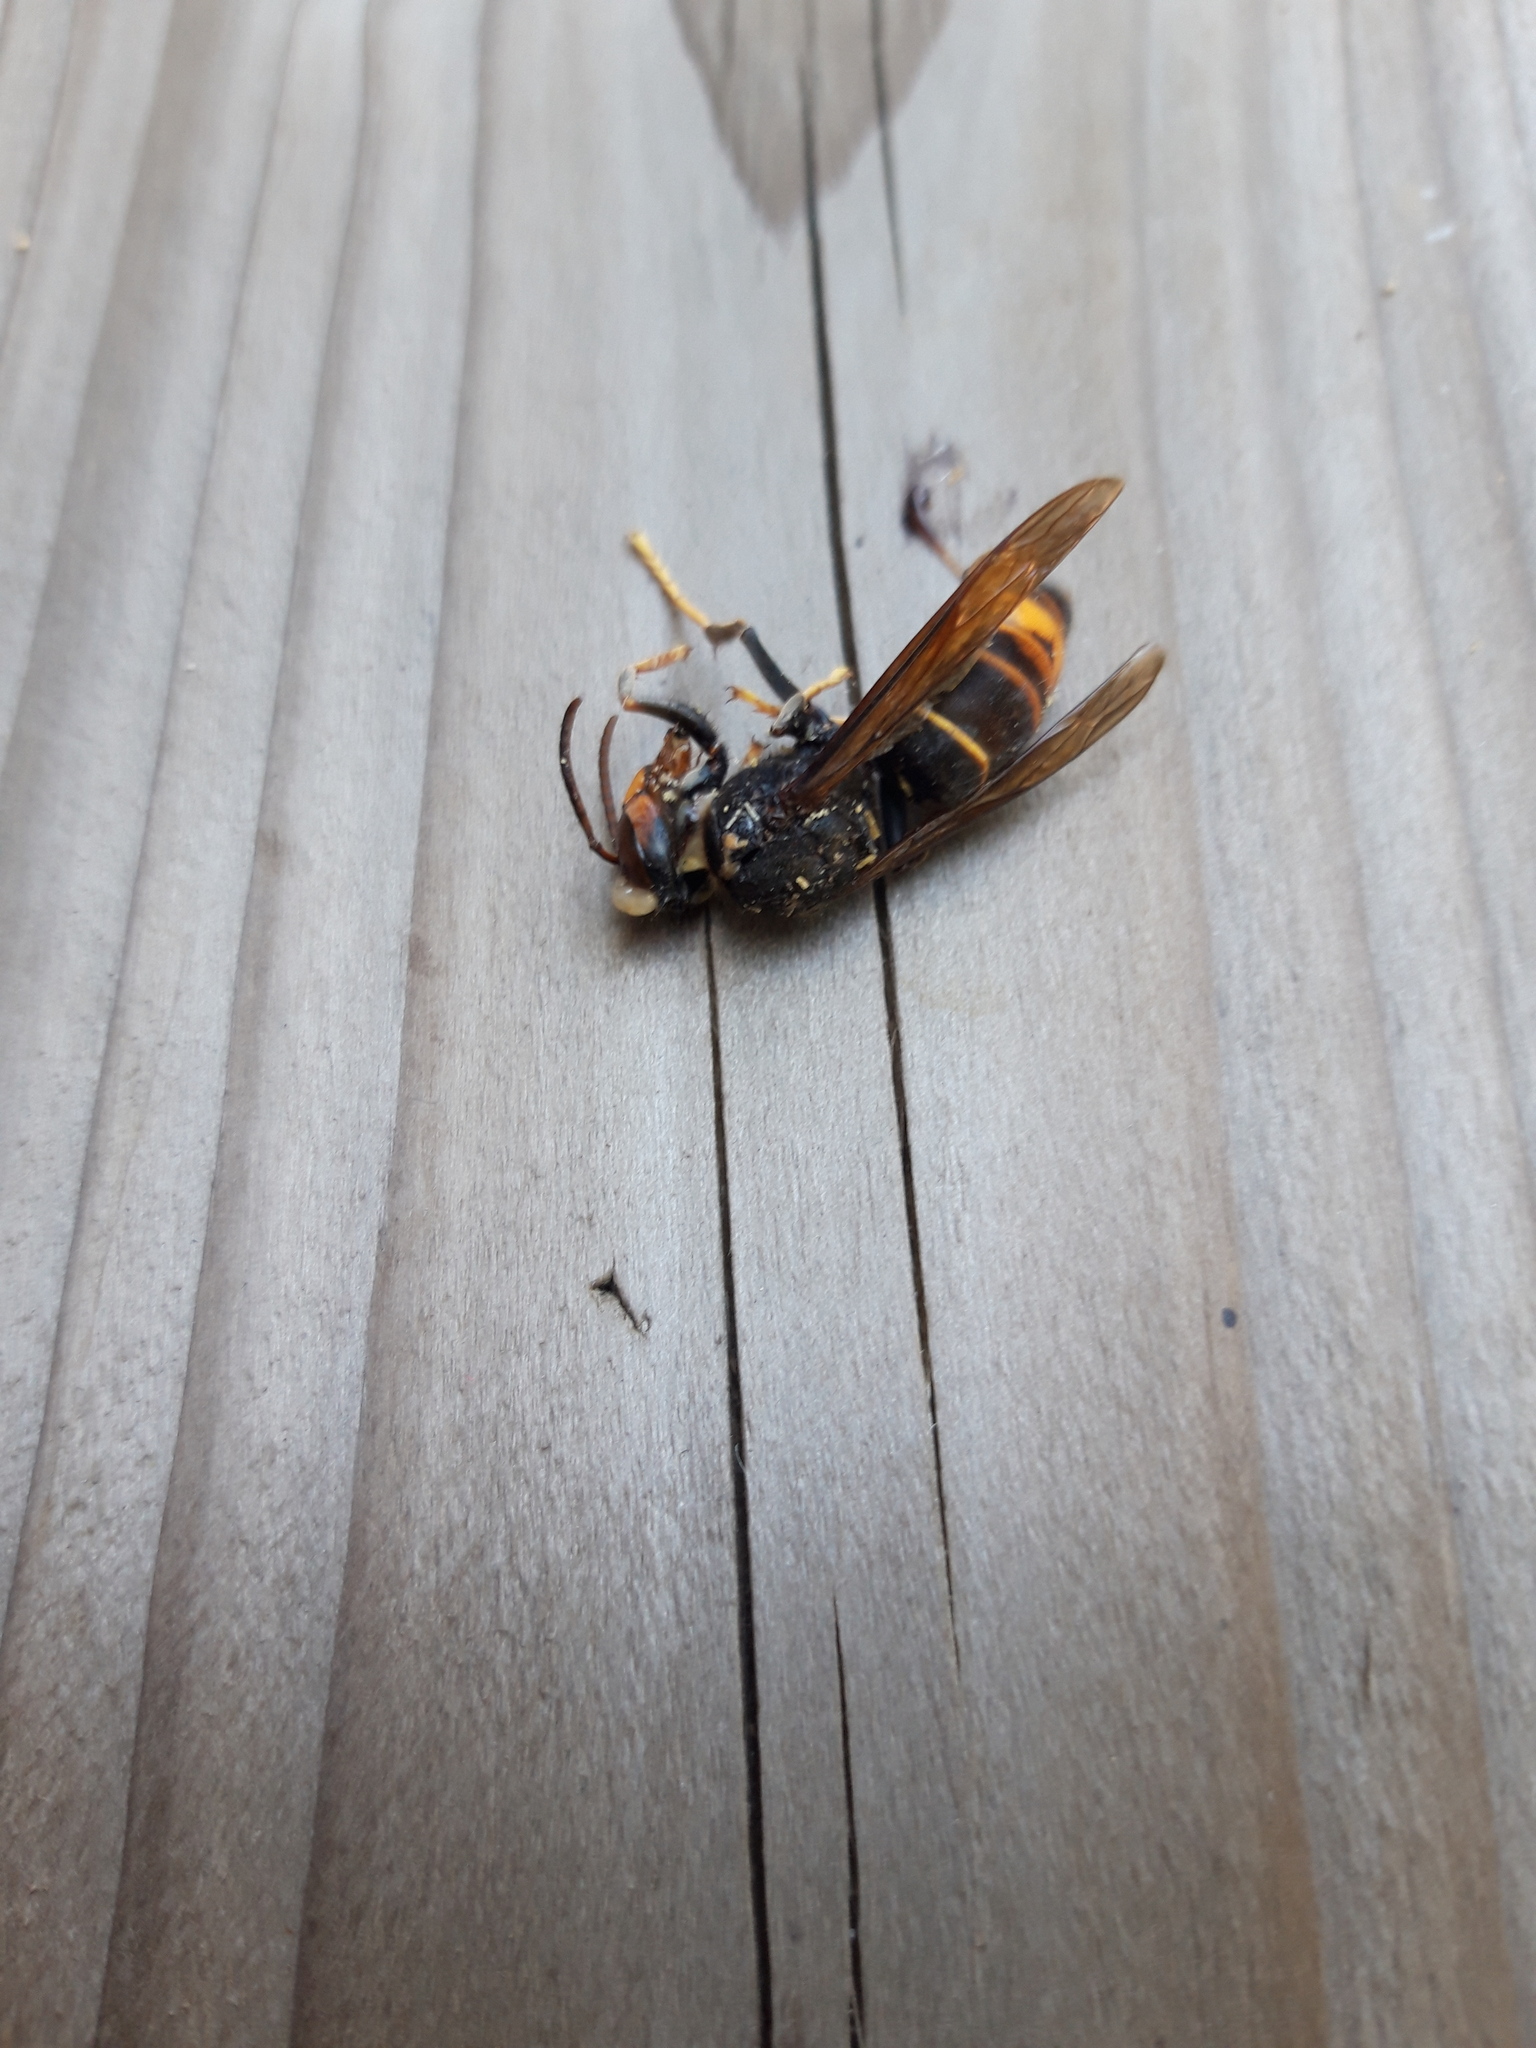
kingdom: Animalia
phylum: Arthropoda
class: Insecta
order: Hymenoptera
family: Vespidae
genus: Vespa
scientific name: Vespa velutina
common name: Asian hornet
